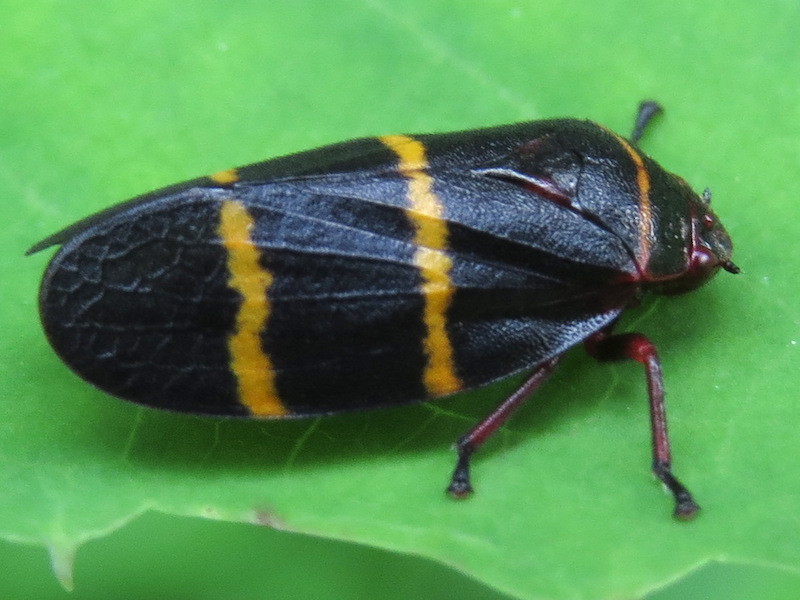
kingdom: Animalia
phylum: Arthropoda
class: Insecta
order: Hemiptera
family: Cercopidae
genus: Prosapia
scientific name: Prosapia bicincta
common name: Twolined spittlebug
